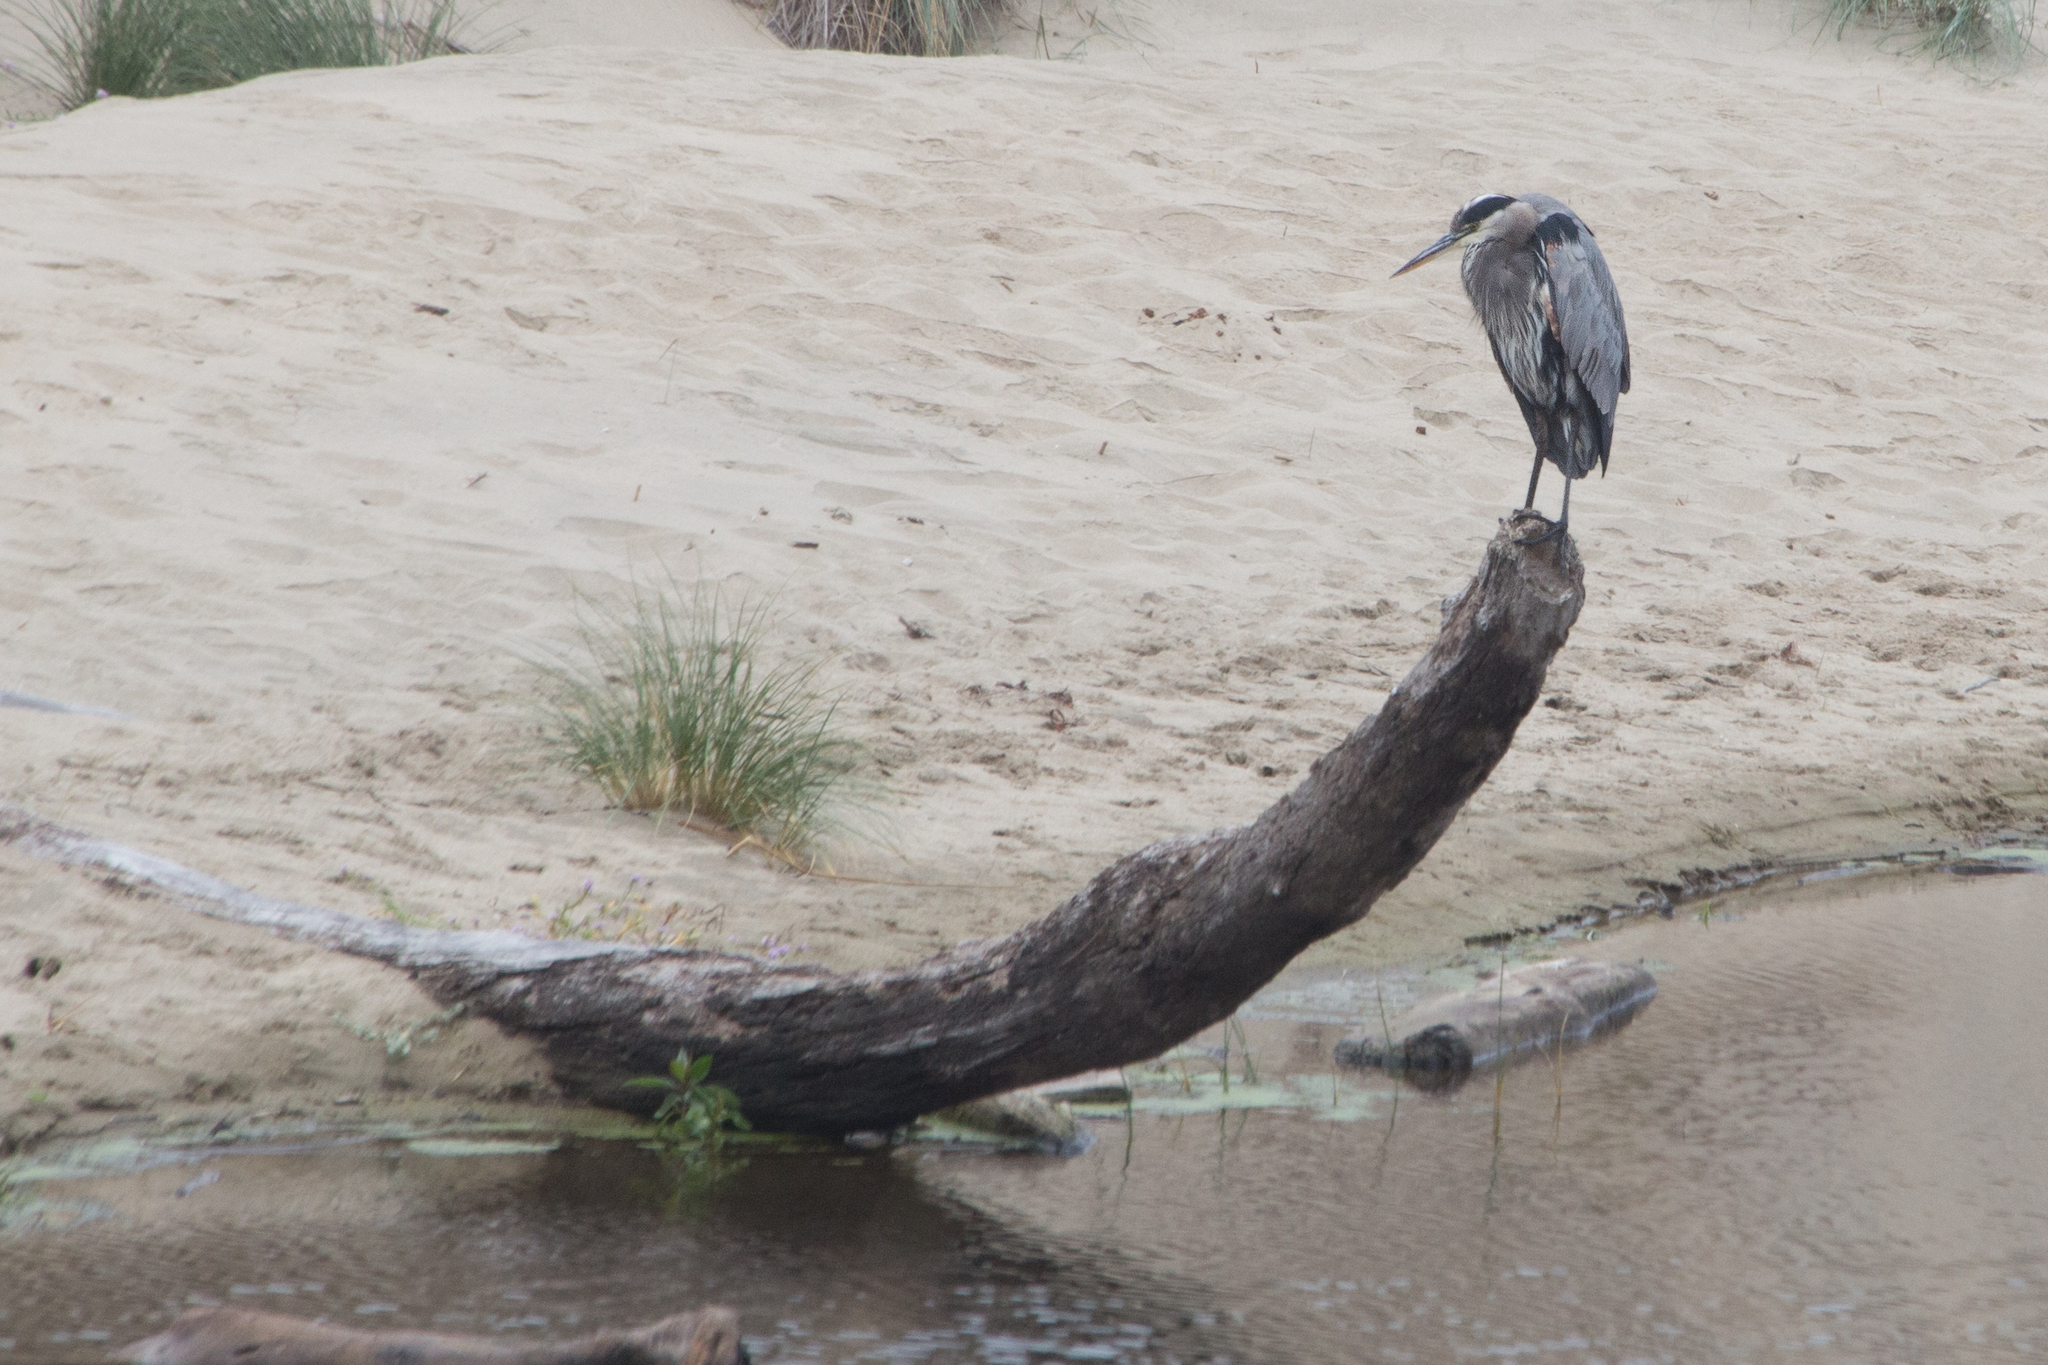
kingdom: Animalia
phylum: Chordata
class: Aves
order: Pelecaniformes
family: Ardeidae
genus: Ardea
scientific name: Ardea herodias
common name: Great blue heron
